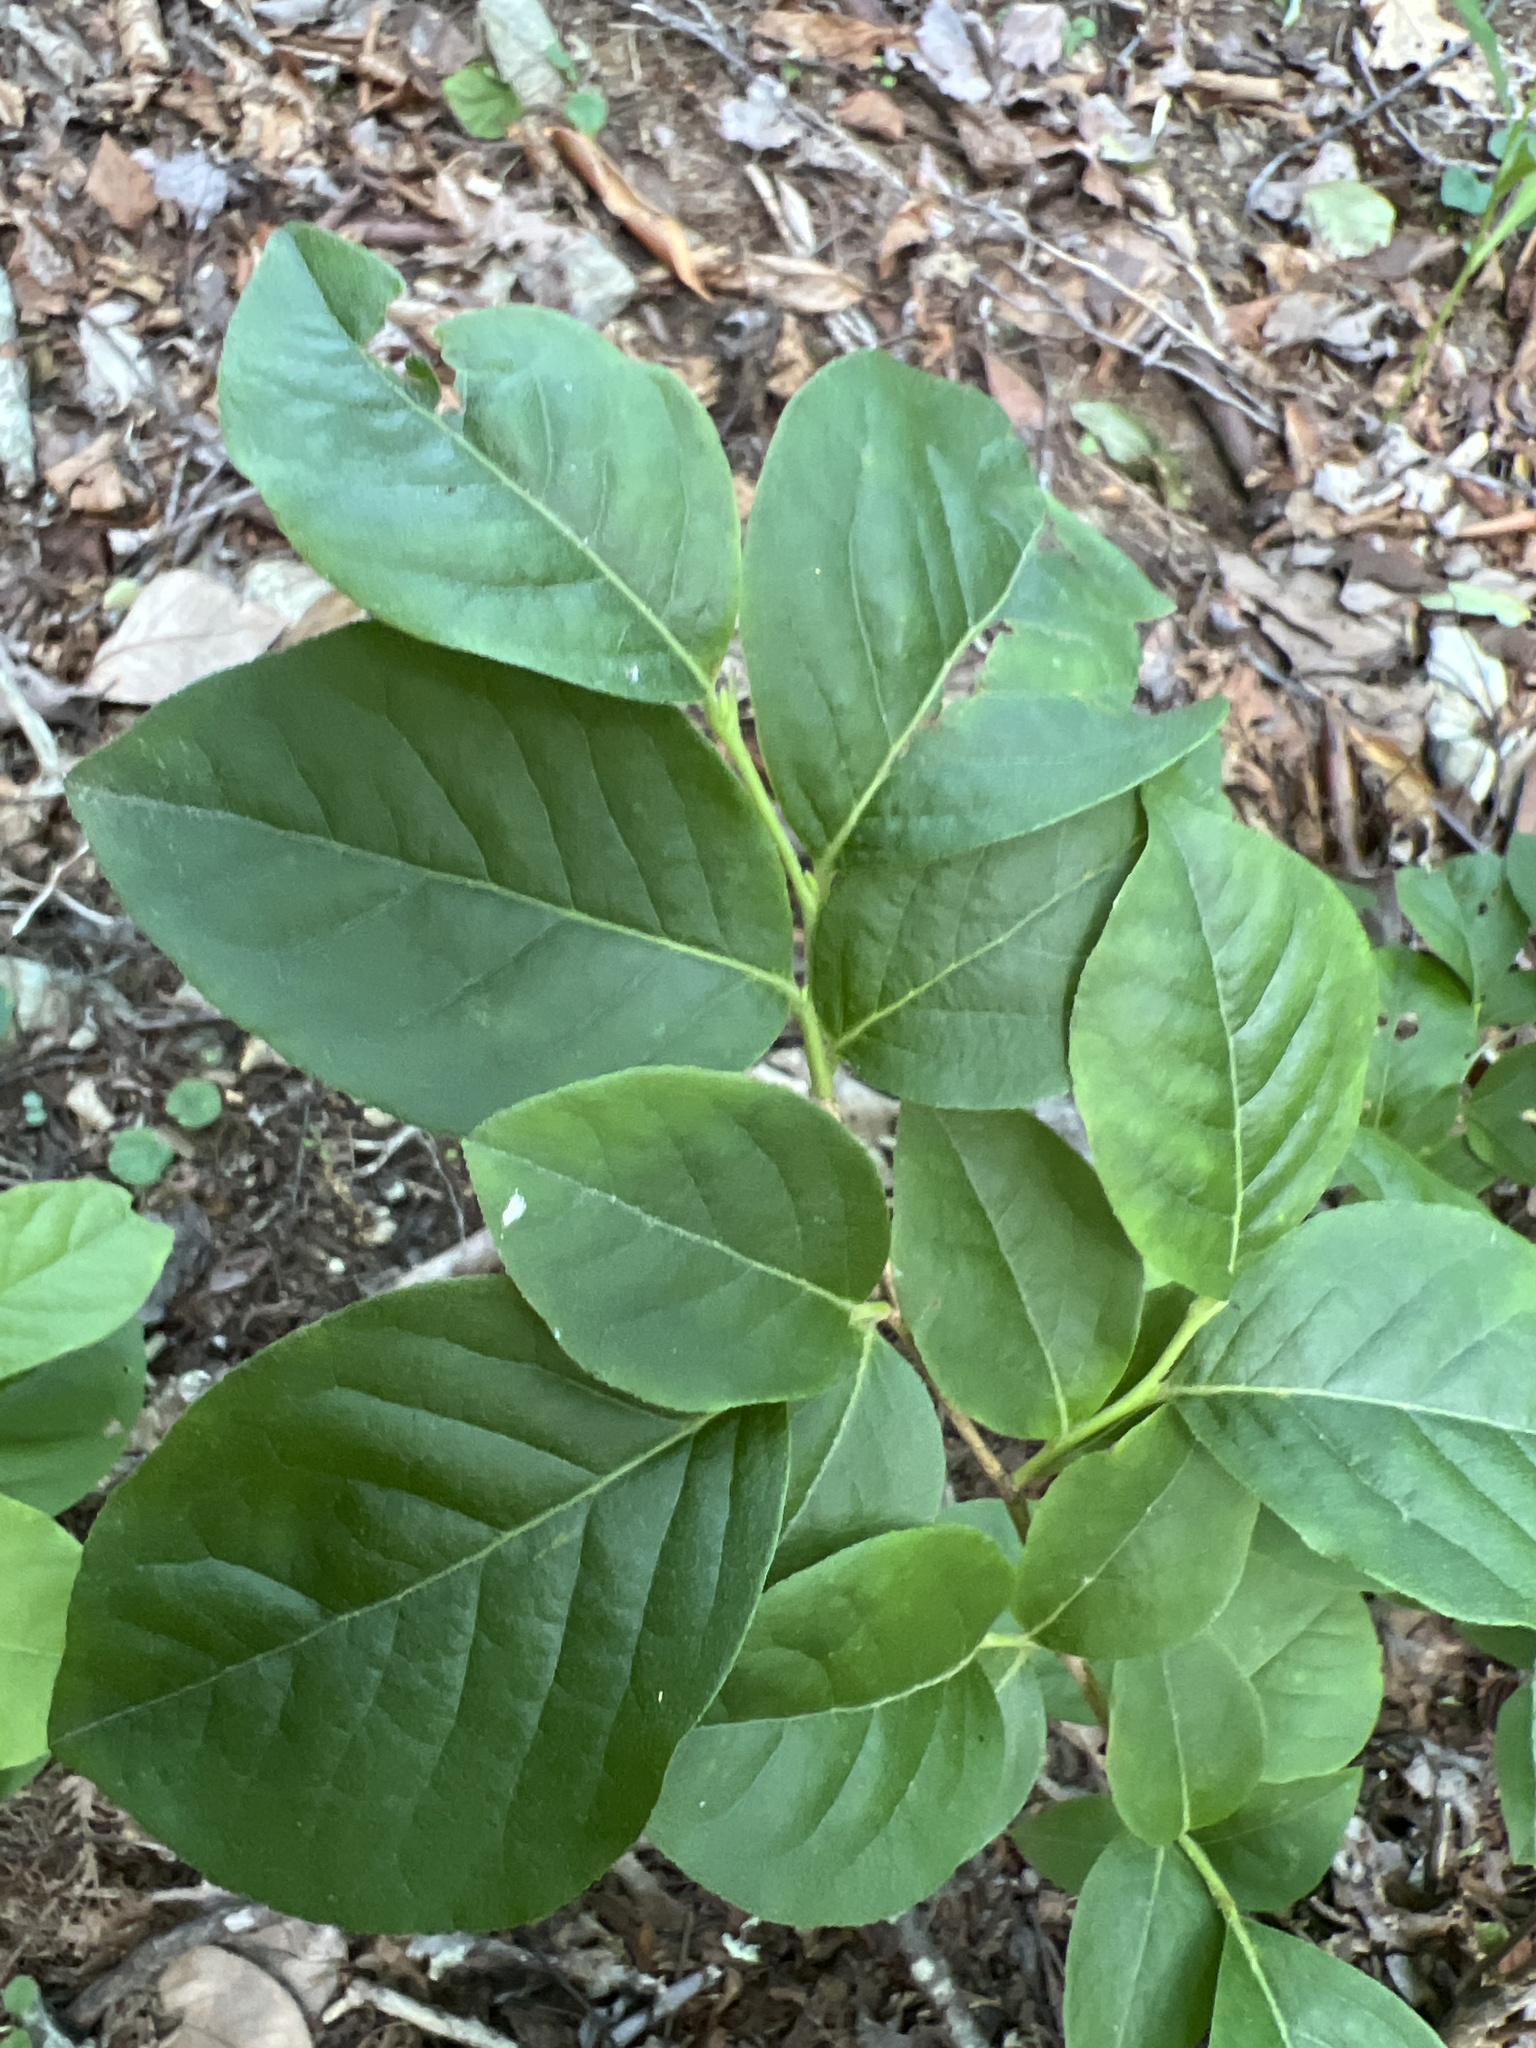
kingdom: Plantae
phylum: Tracheophyta
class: Magnoliopsida
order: Ericales
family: Ericaceae
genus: Lyonia
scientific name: Lyonia ligustrina
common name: Maleberry
